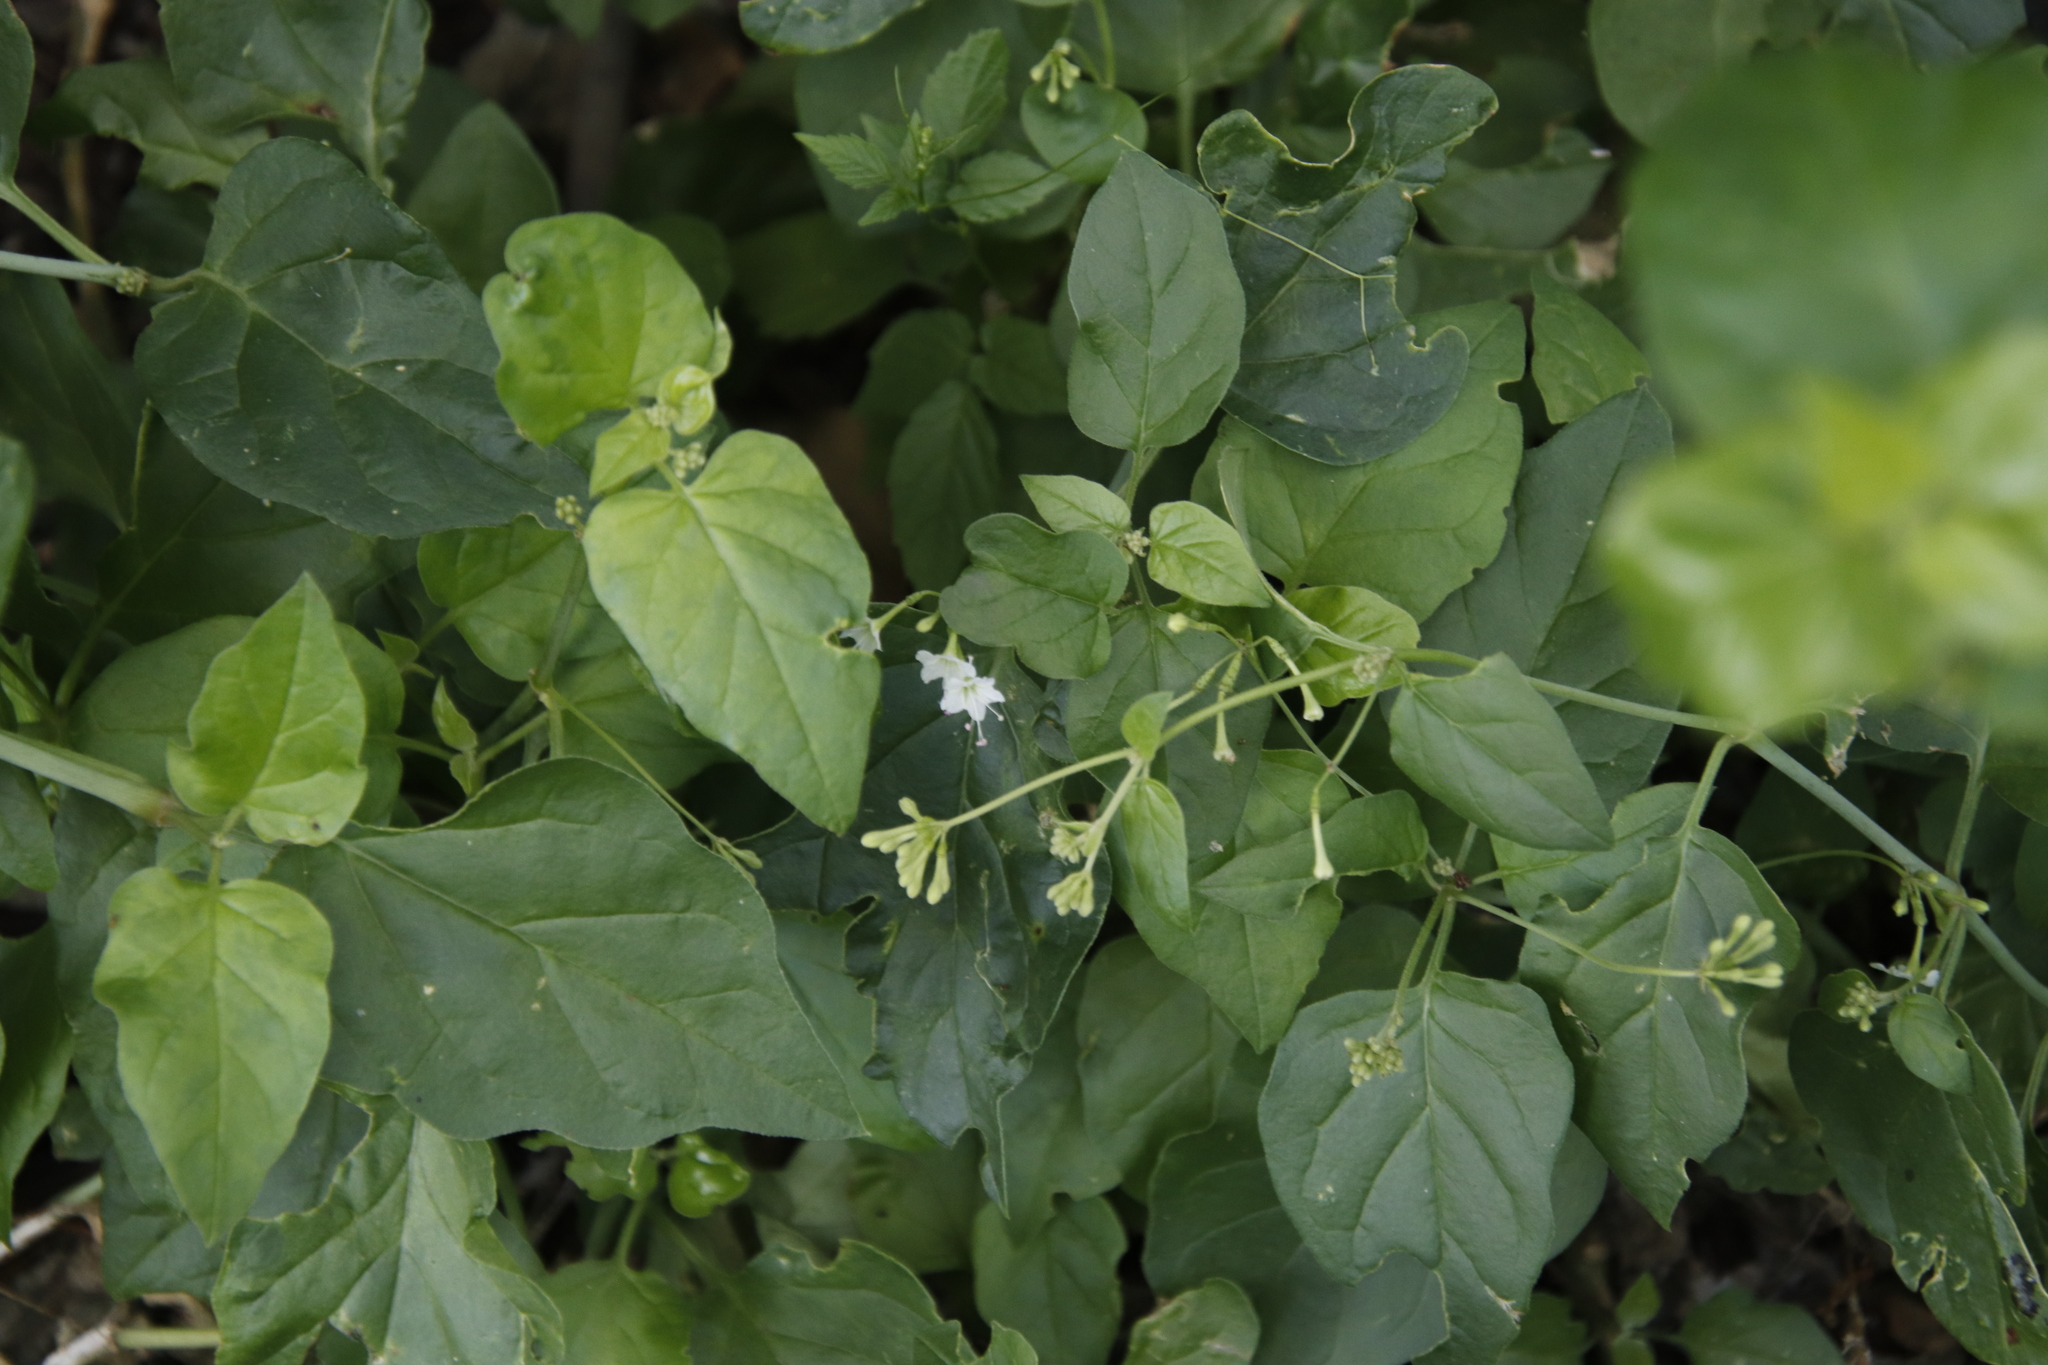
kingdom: Plantae
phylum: Tracheophyta
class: Magnoliopsida
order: Caryophyllales
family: Nyctaginaceae
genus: Commicarpus
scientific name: Commicarpus plumbagineus
